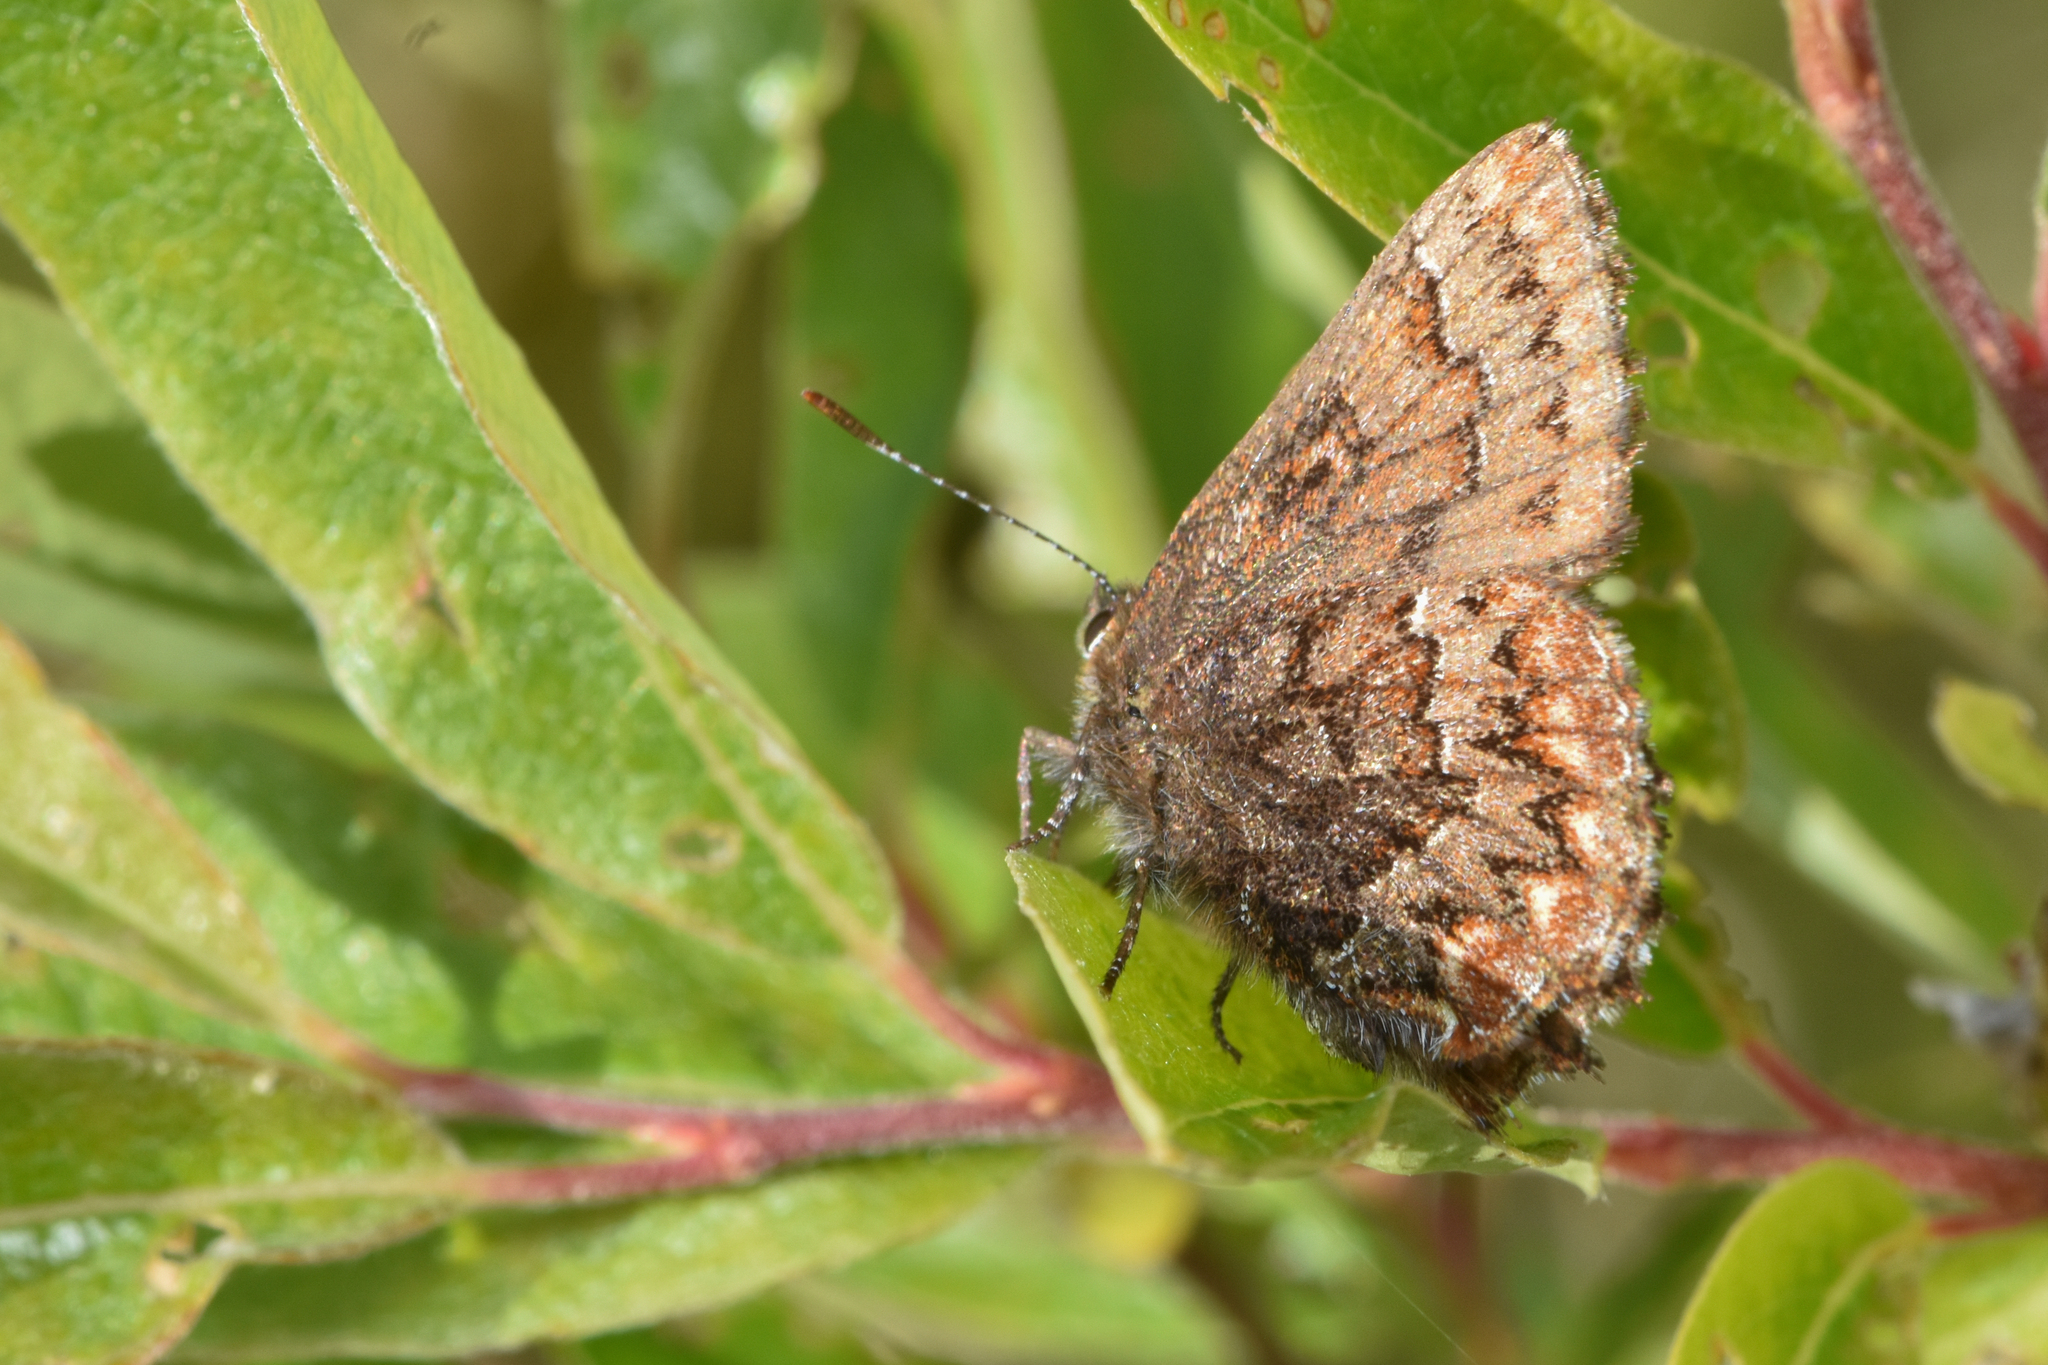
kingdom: Animalia
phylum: Arthropoda
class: Insecta
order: Lepidoptera
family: Lycaenidae
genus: Incisalia
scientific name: Incisalia eryphon
